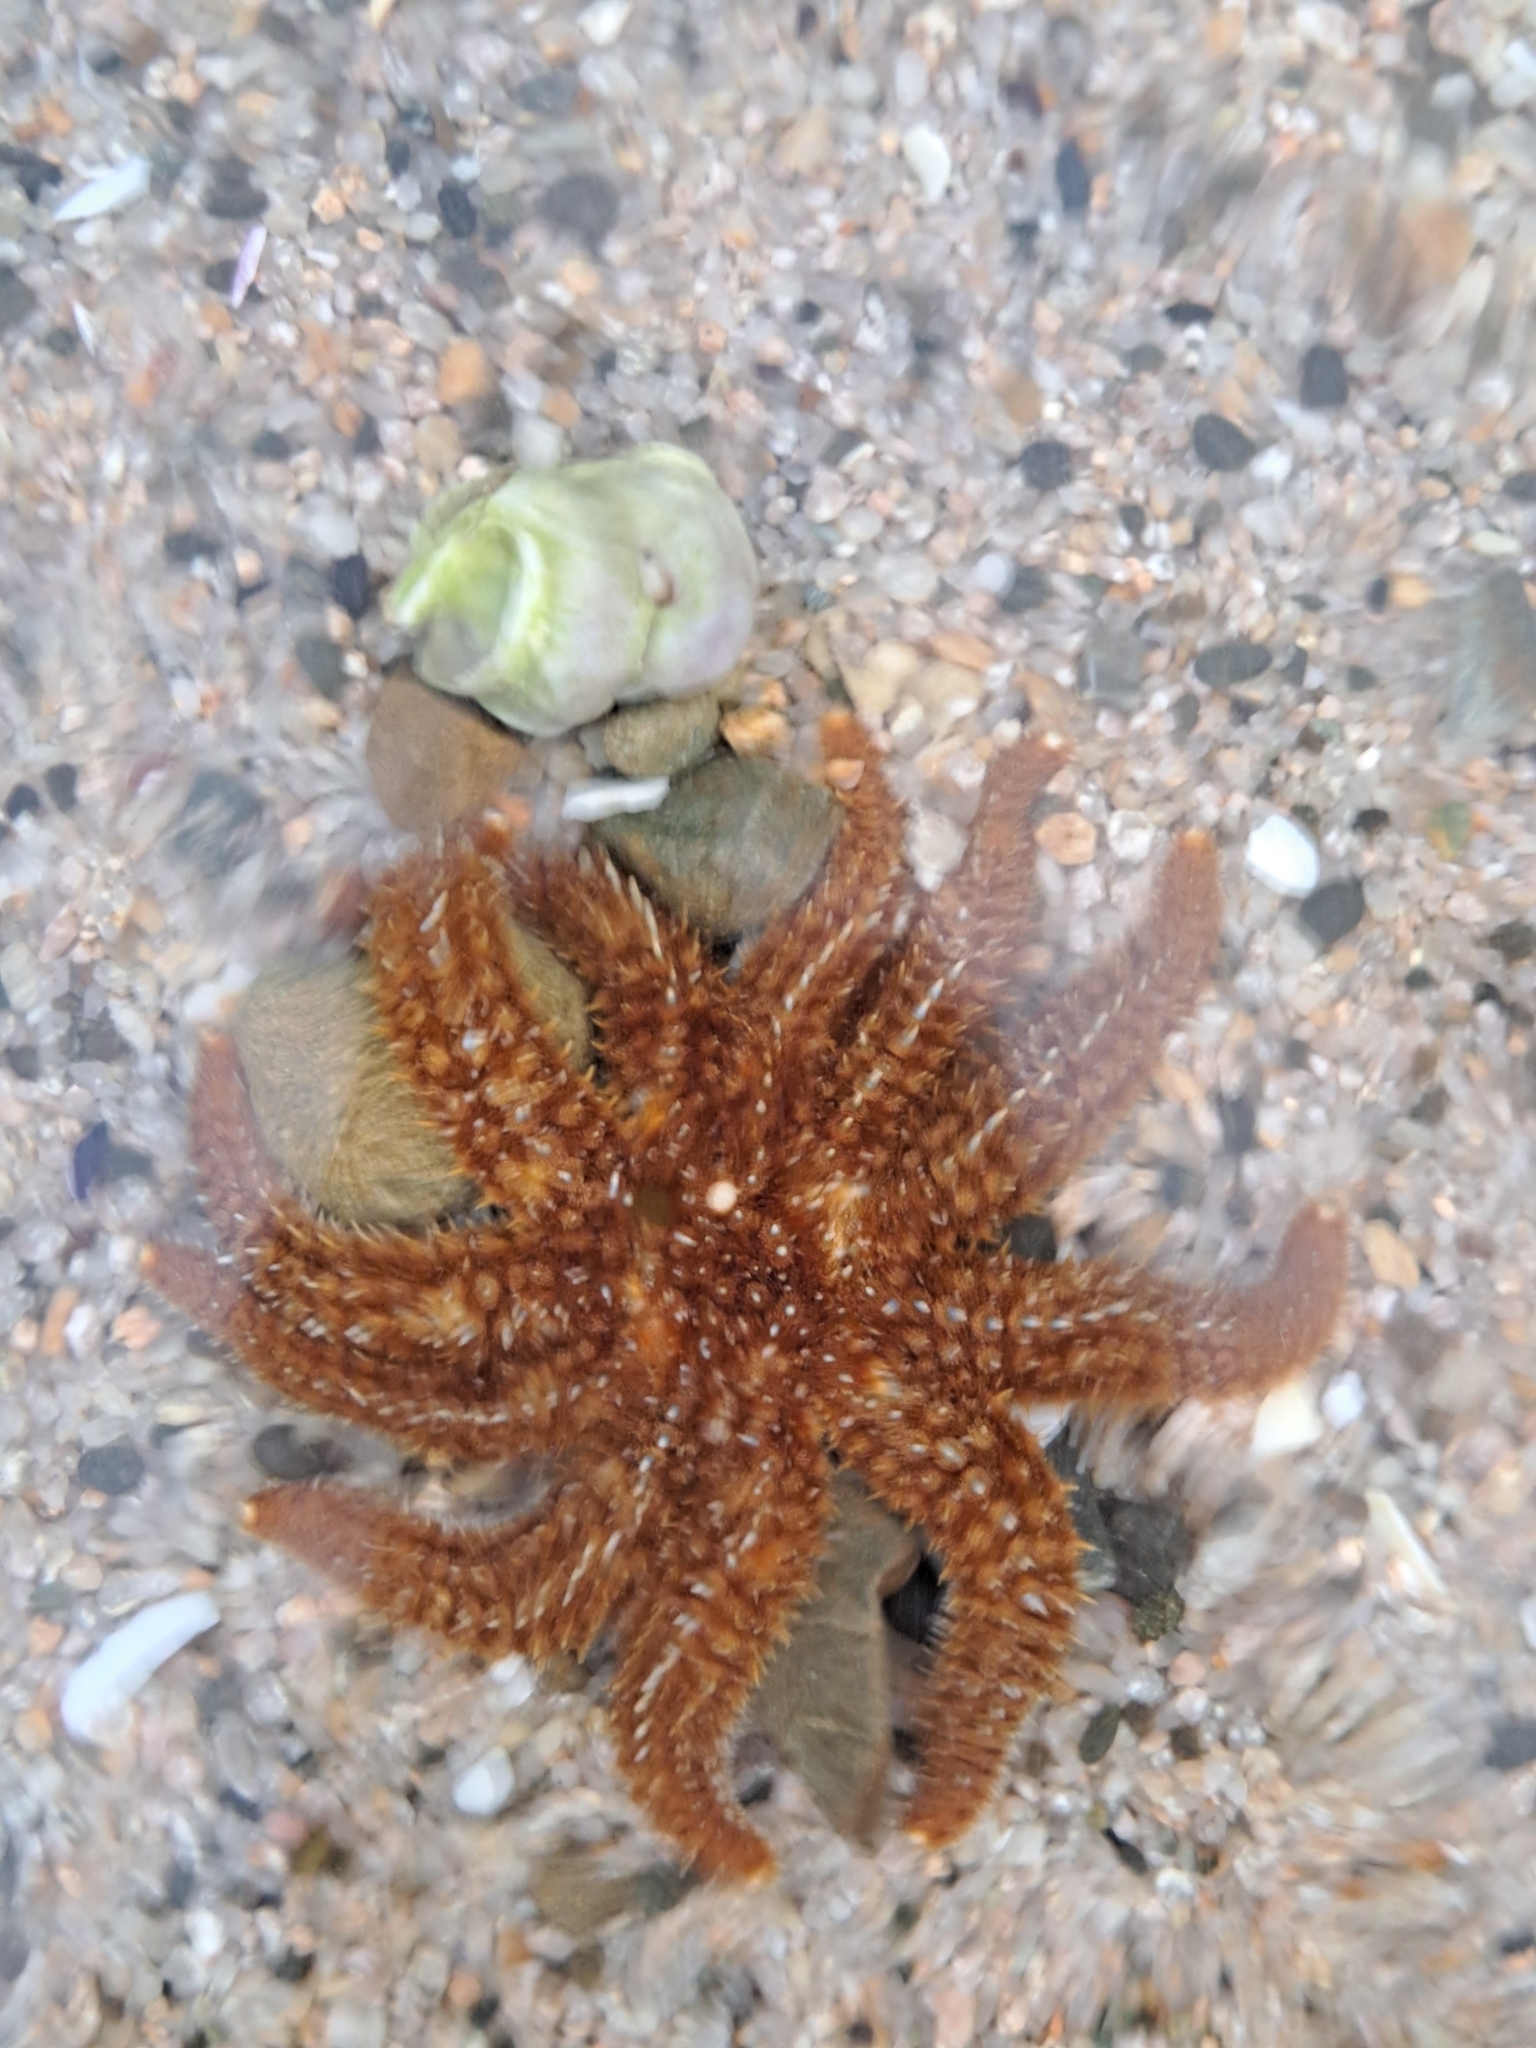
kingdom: Animalia
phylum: Echinodermata
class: Asteroidea
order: Forcipulatida
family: Asteriidae
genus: Coscinasterias
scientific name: Coscinasterias muricata
